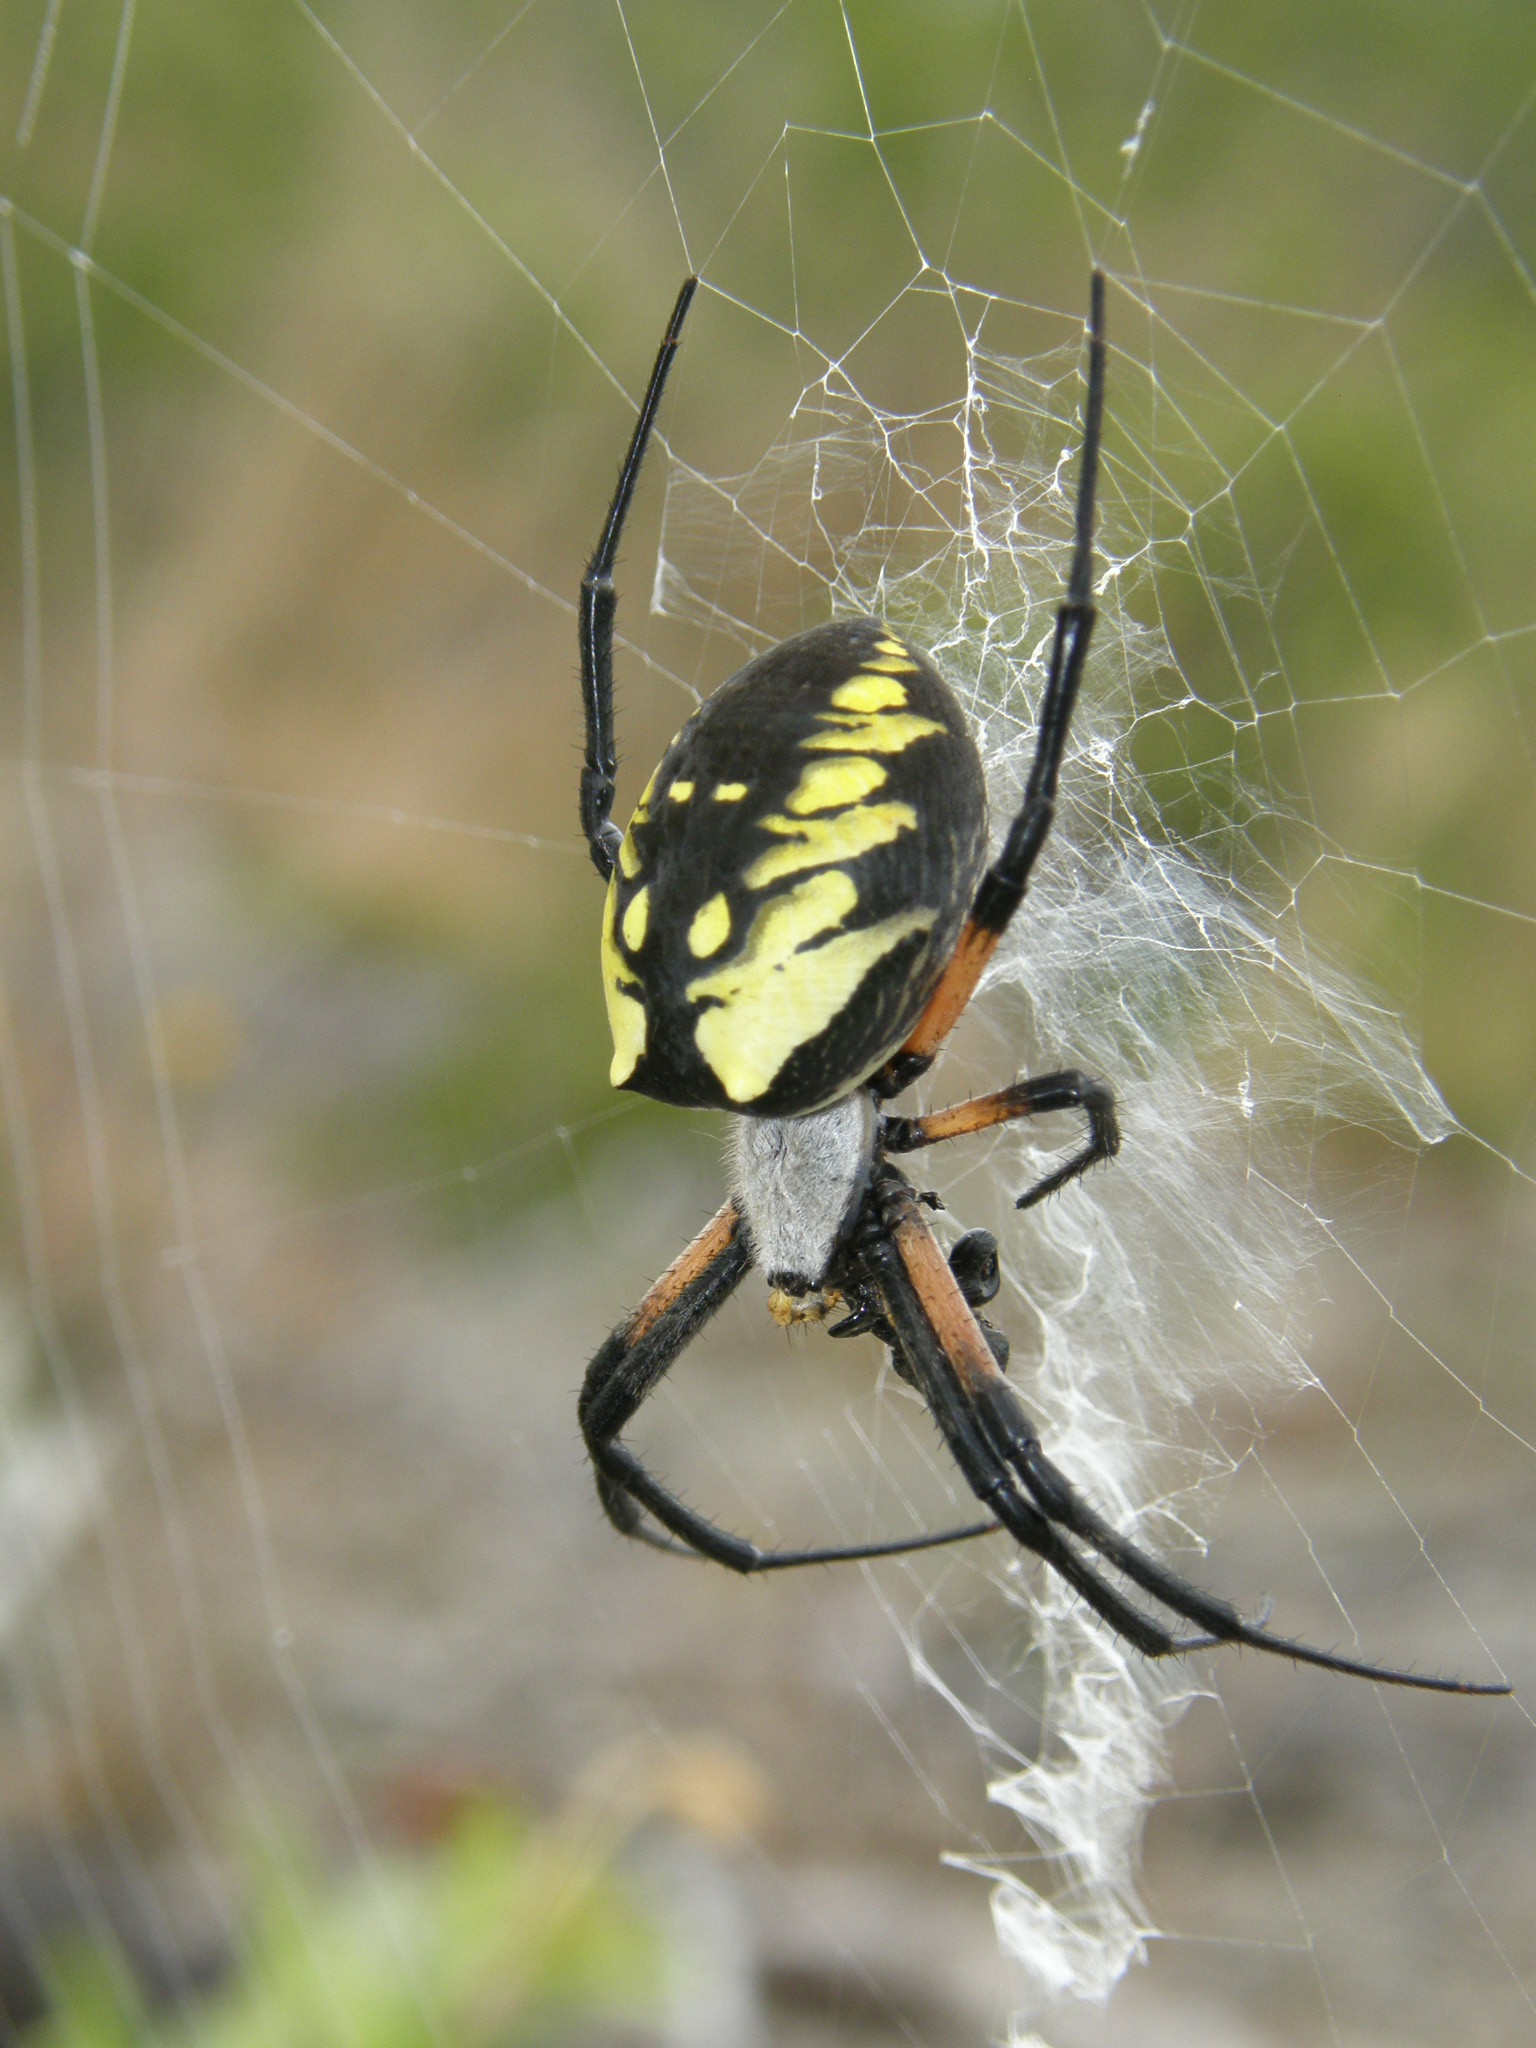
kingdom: Animalia
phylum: Arthropoda
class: Arachnida
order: Araneae
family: Araneidae
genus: Argiope
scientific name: Argiope aurantia
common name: Orb weavers
